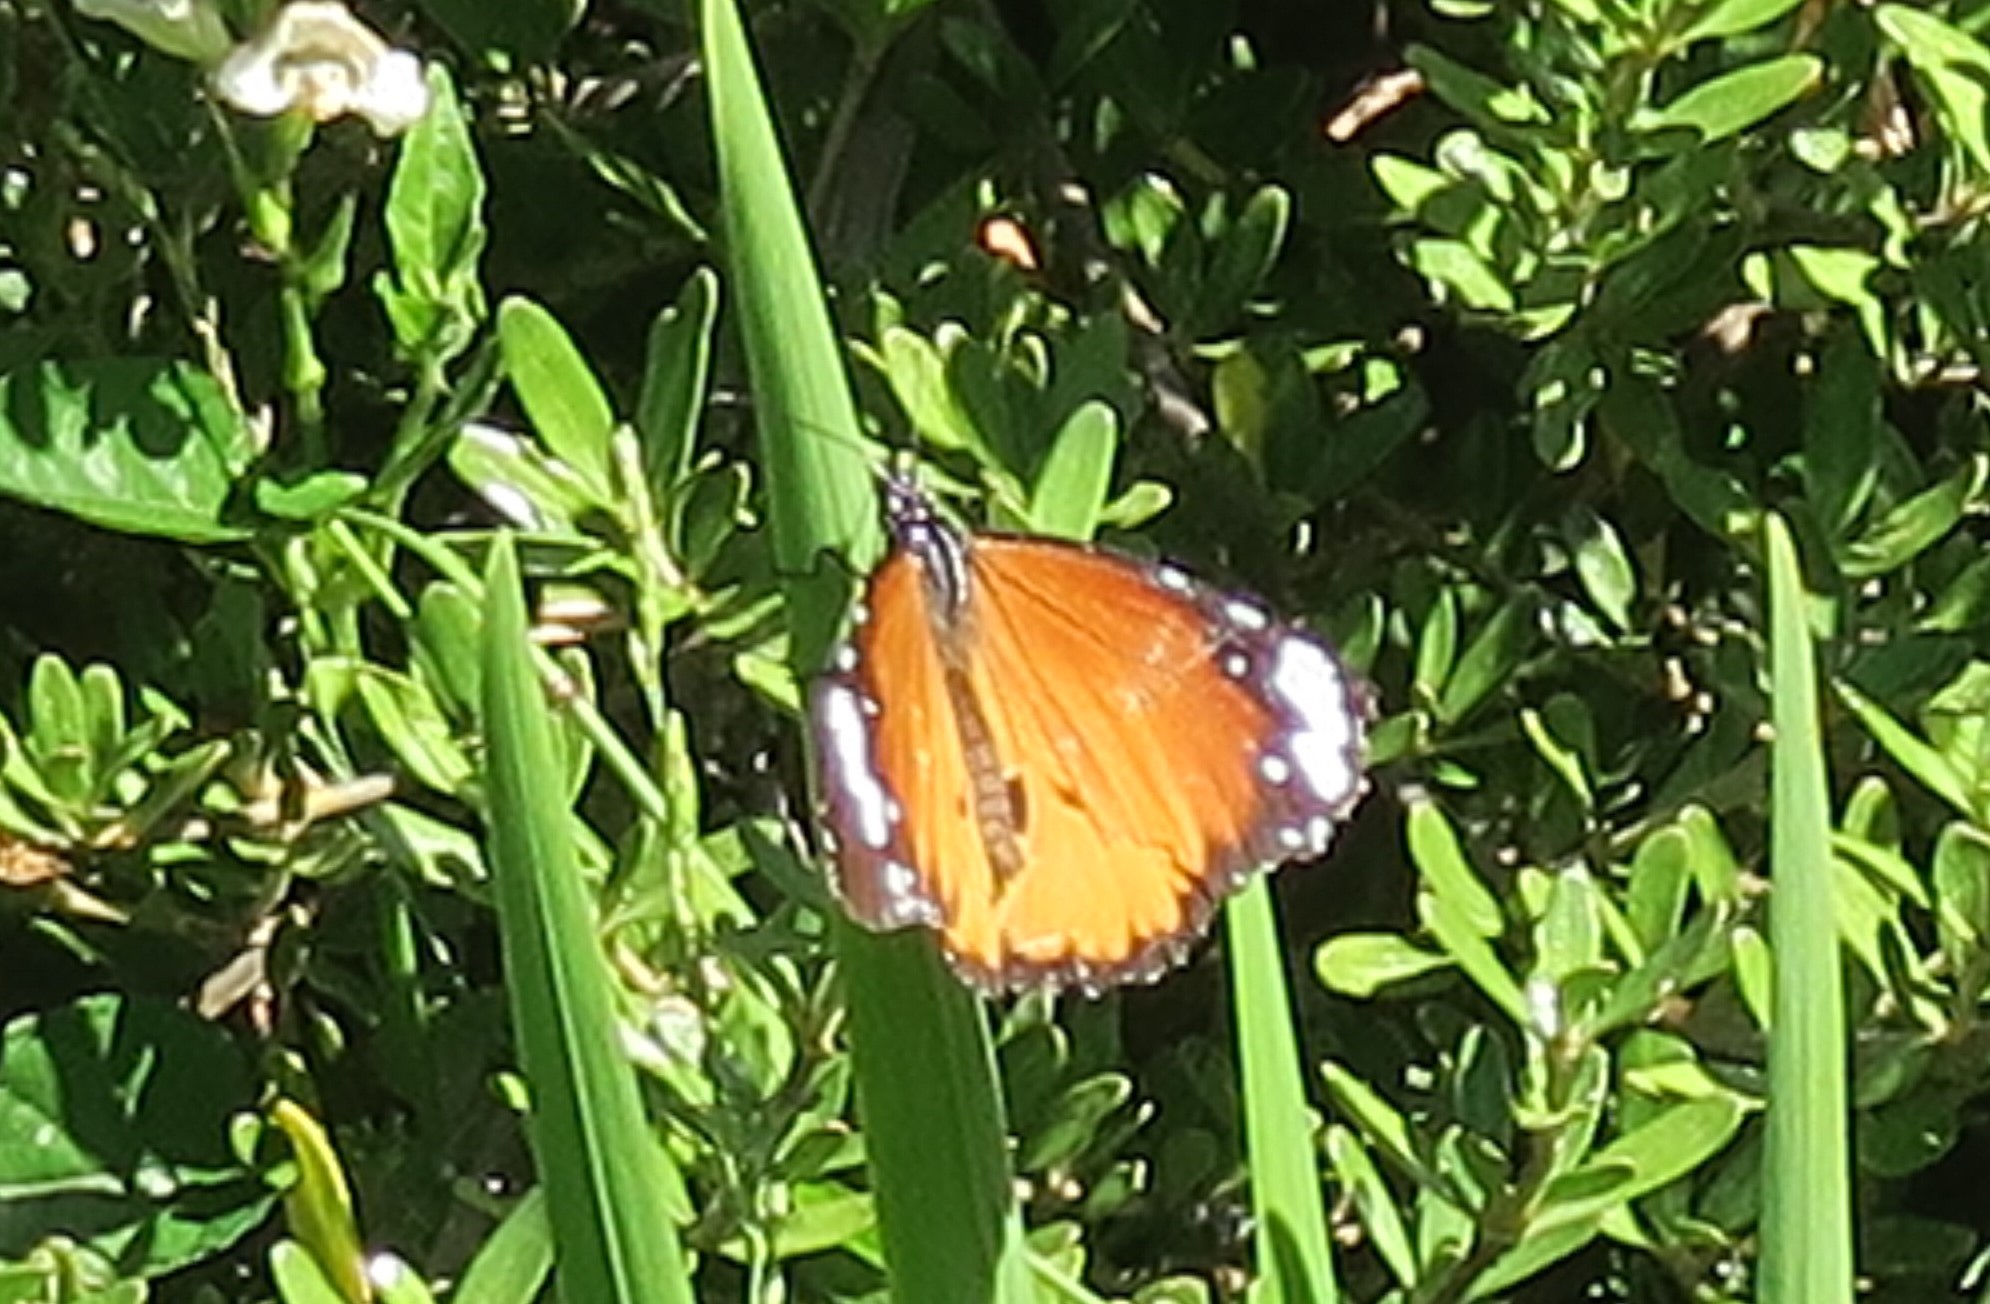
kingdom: Animalia
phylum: Arthropoda
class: Insecta
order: Lepidoptera
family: Nymphalidae
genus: Danaus
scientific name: Danaus chrysippus
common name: Plain tiger
